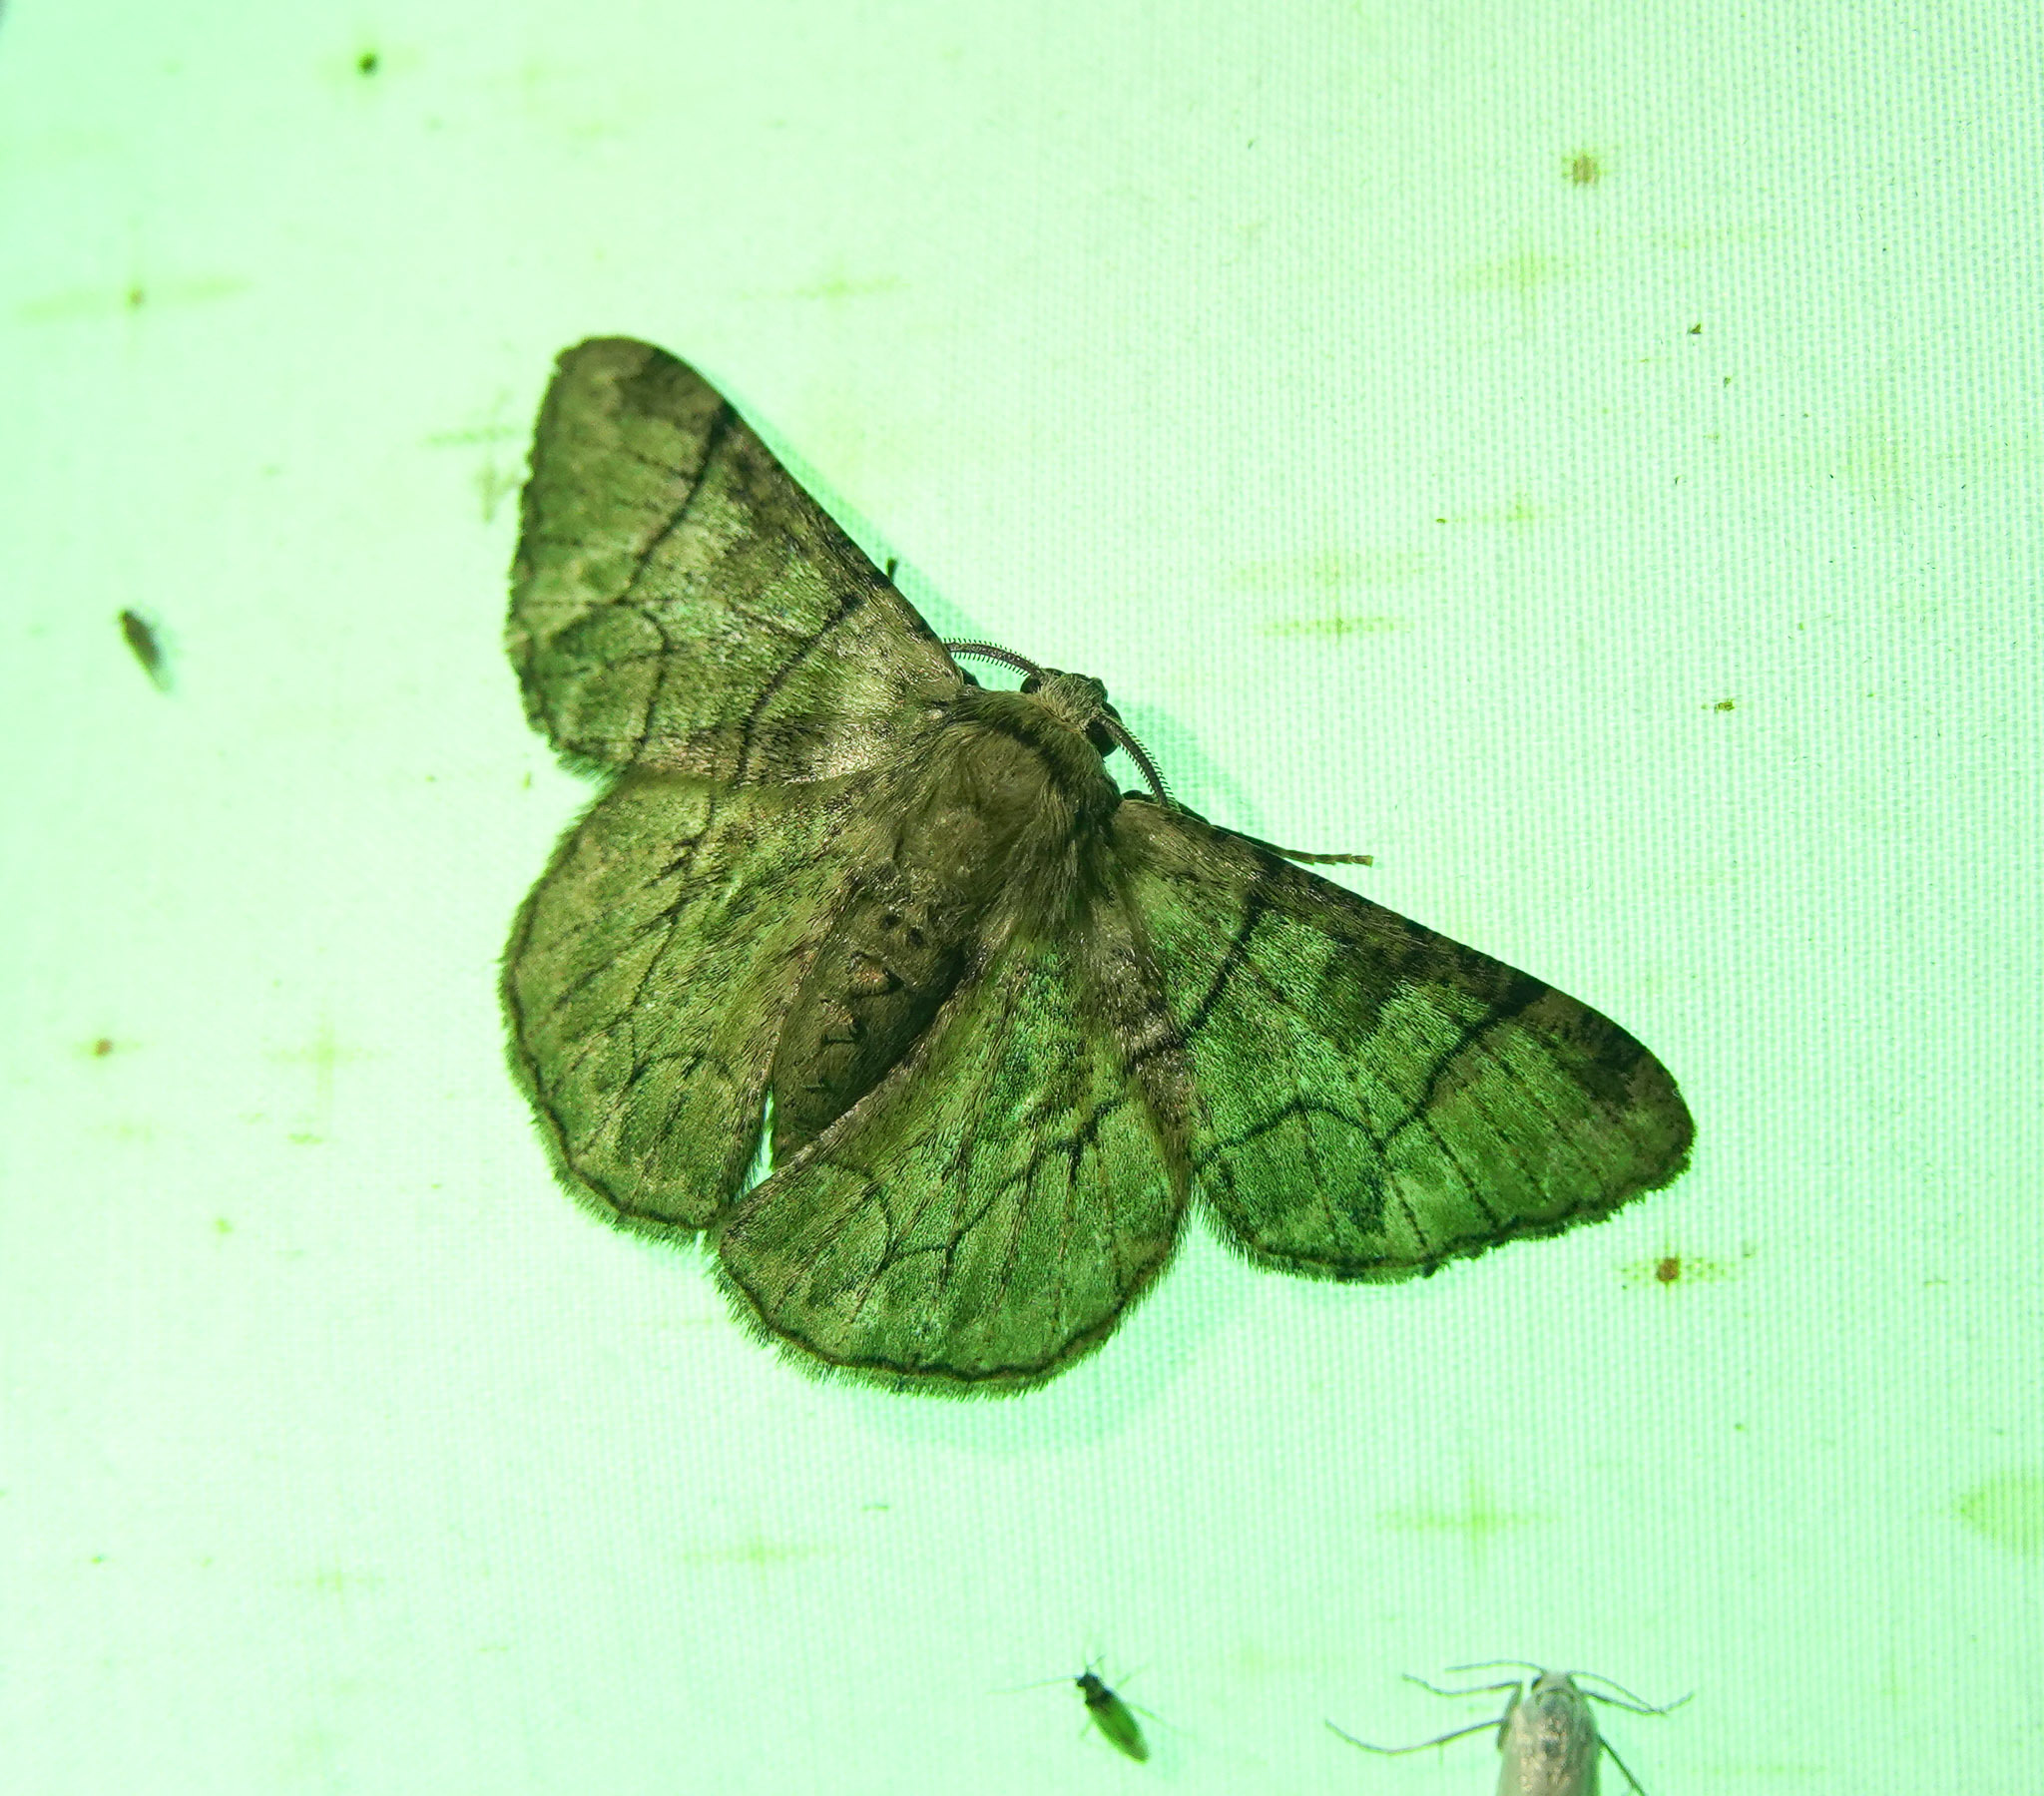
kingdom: Animalia
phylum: Arthropoda
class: Insecta
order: Lepidoptera
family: Geometridae
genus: Metallolophia
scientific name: Metallolophia assamensis
